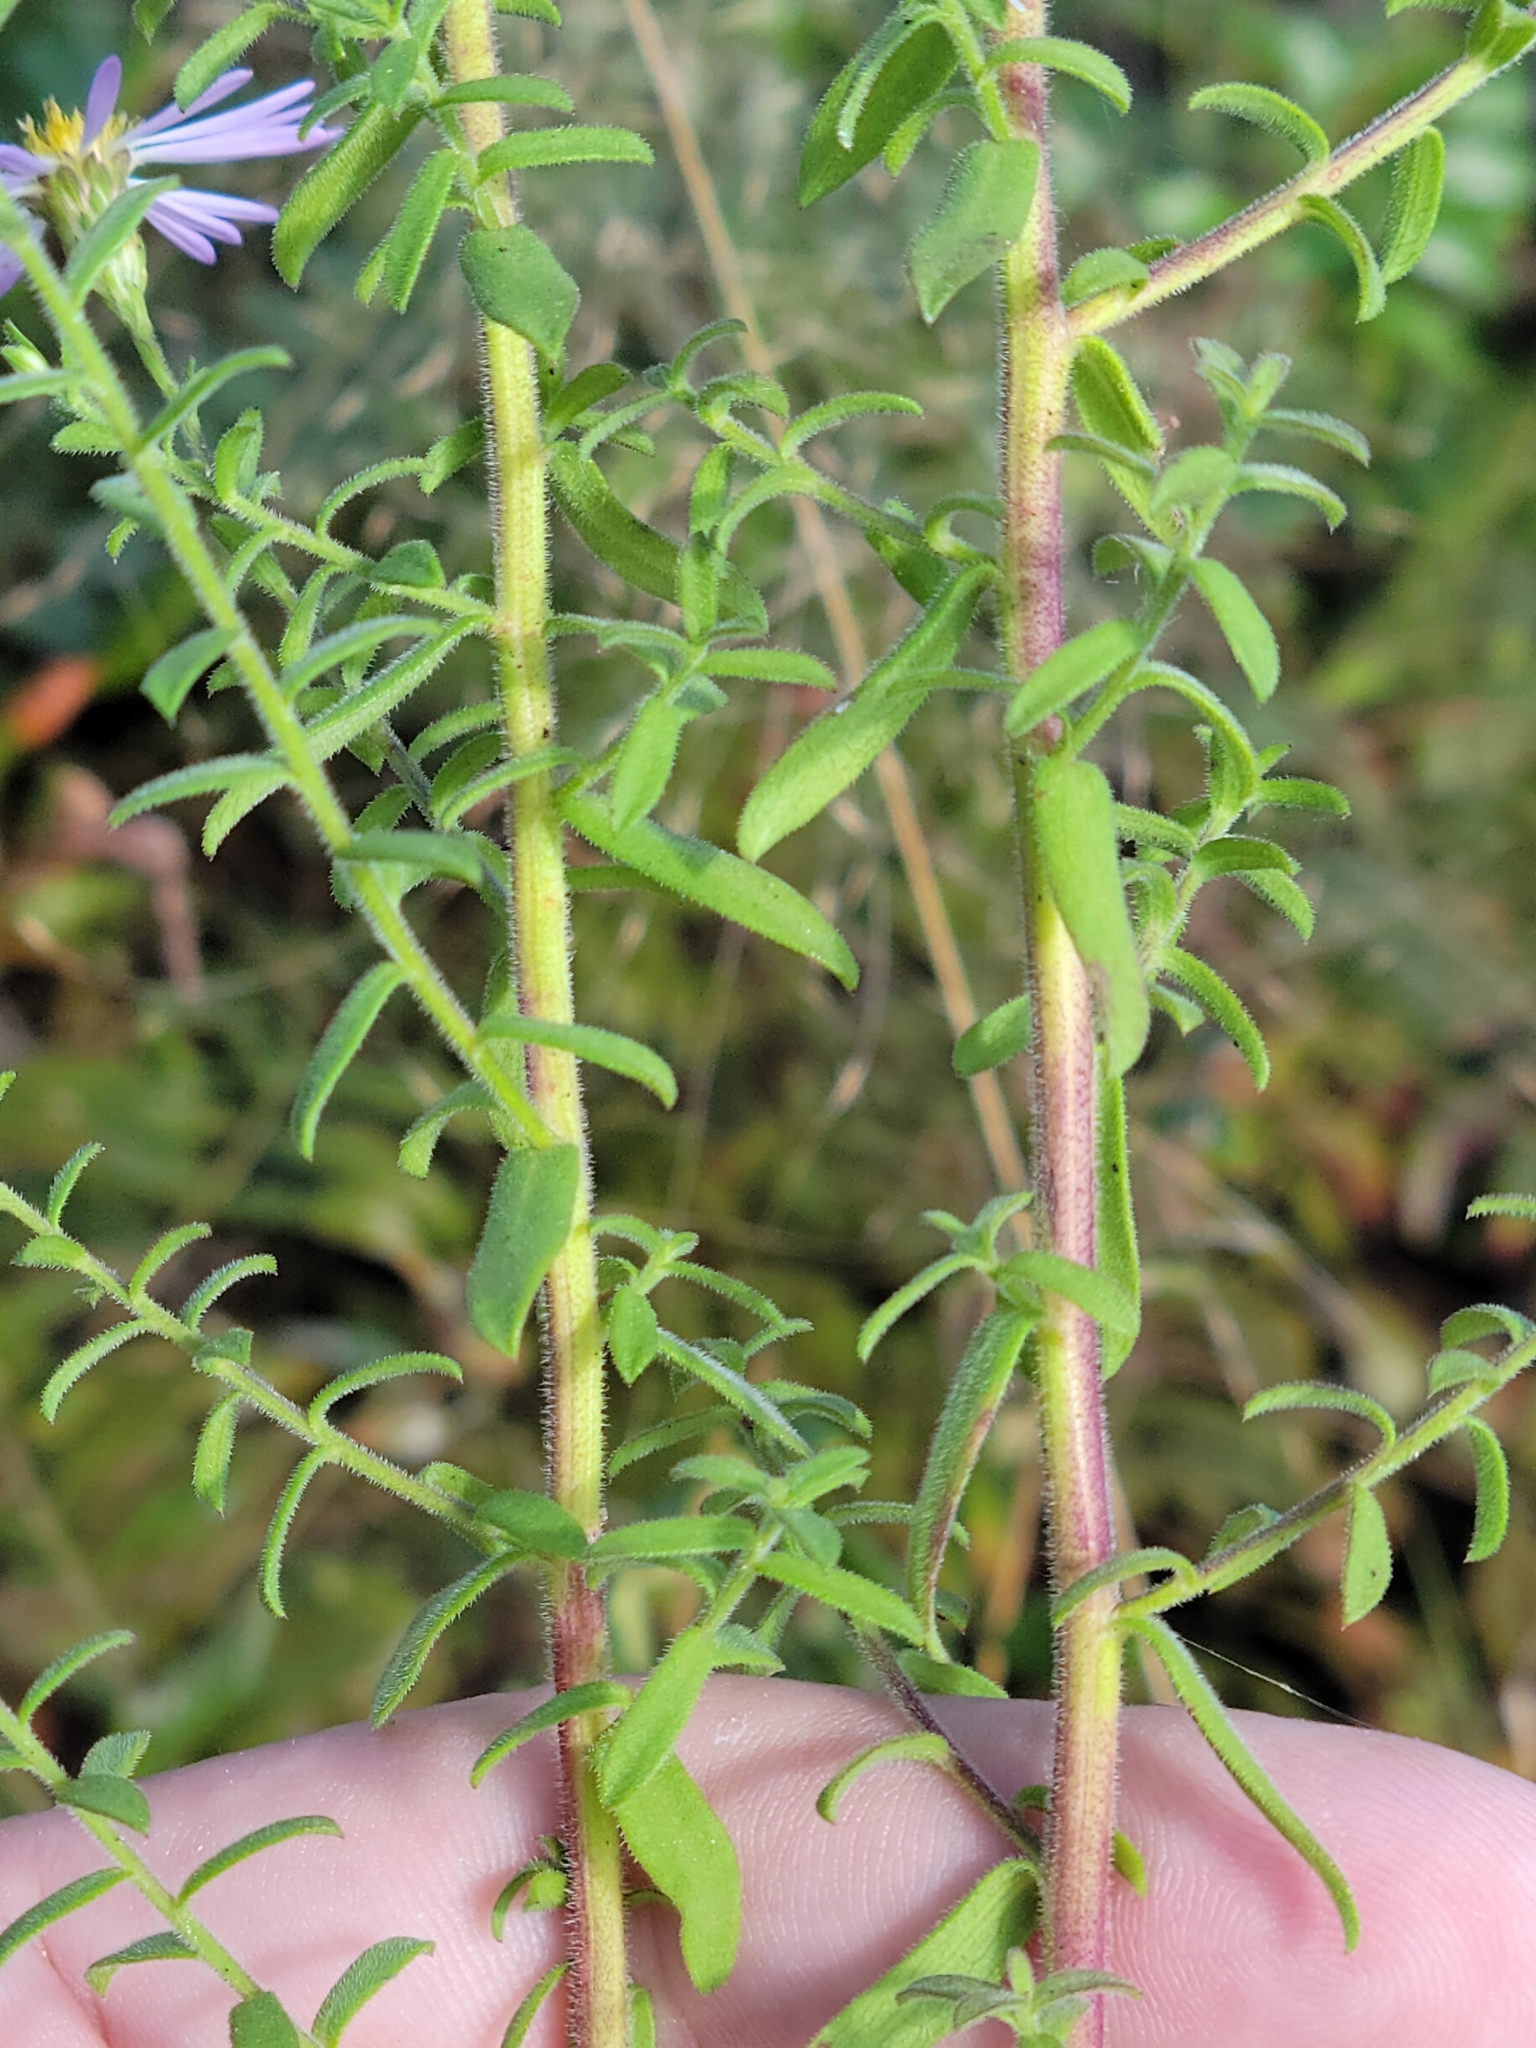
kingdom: Plantae
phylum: Tracheophyta
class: Magnoliopsida
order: Asterales
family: Asteraceae
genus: Symphyotrichum
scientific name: Symphyotrichum fontinale
